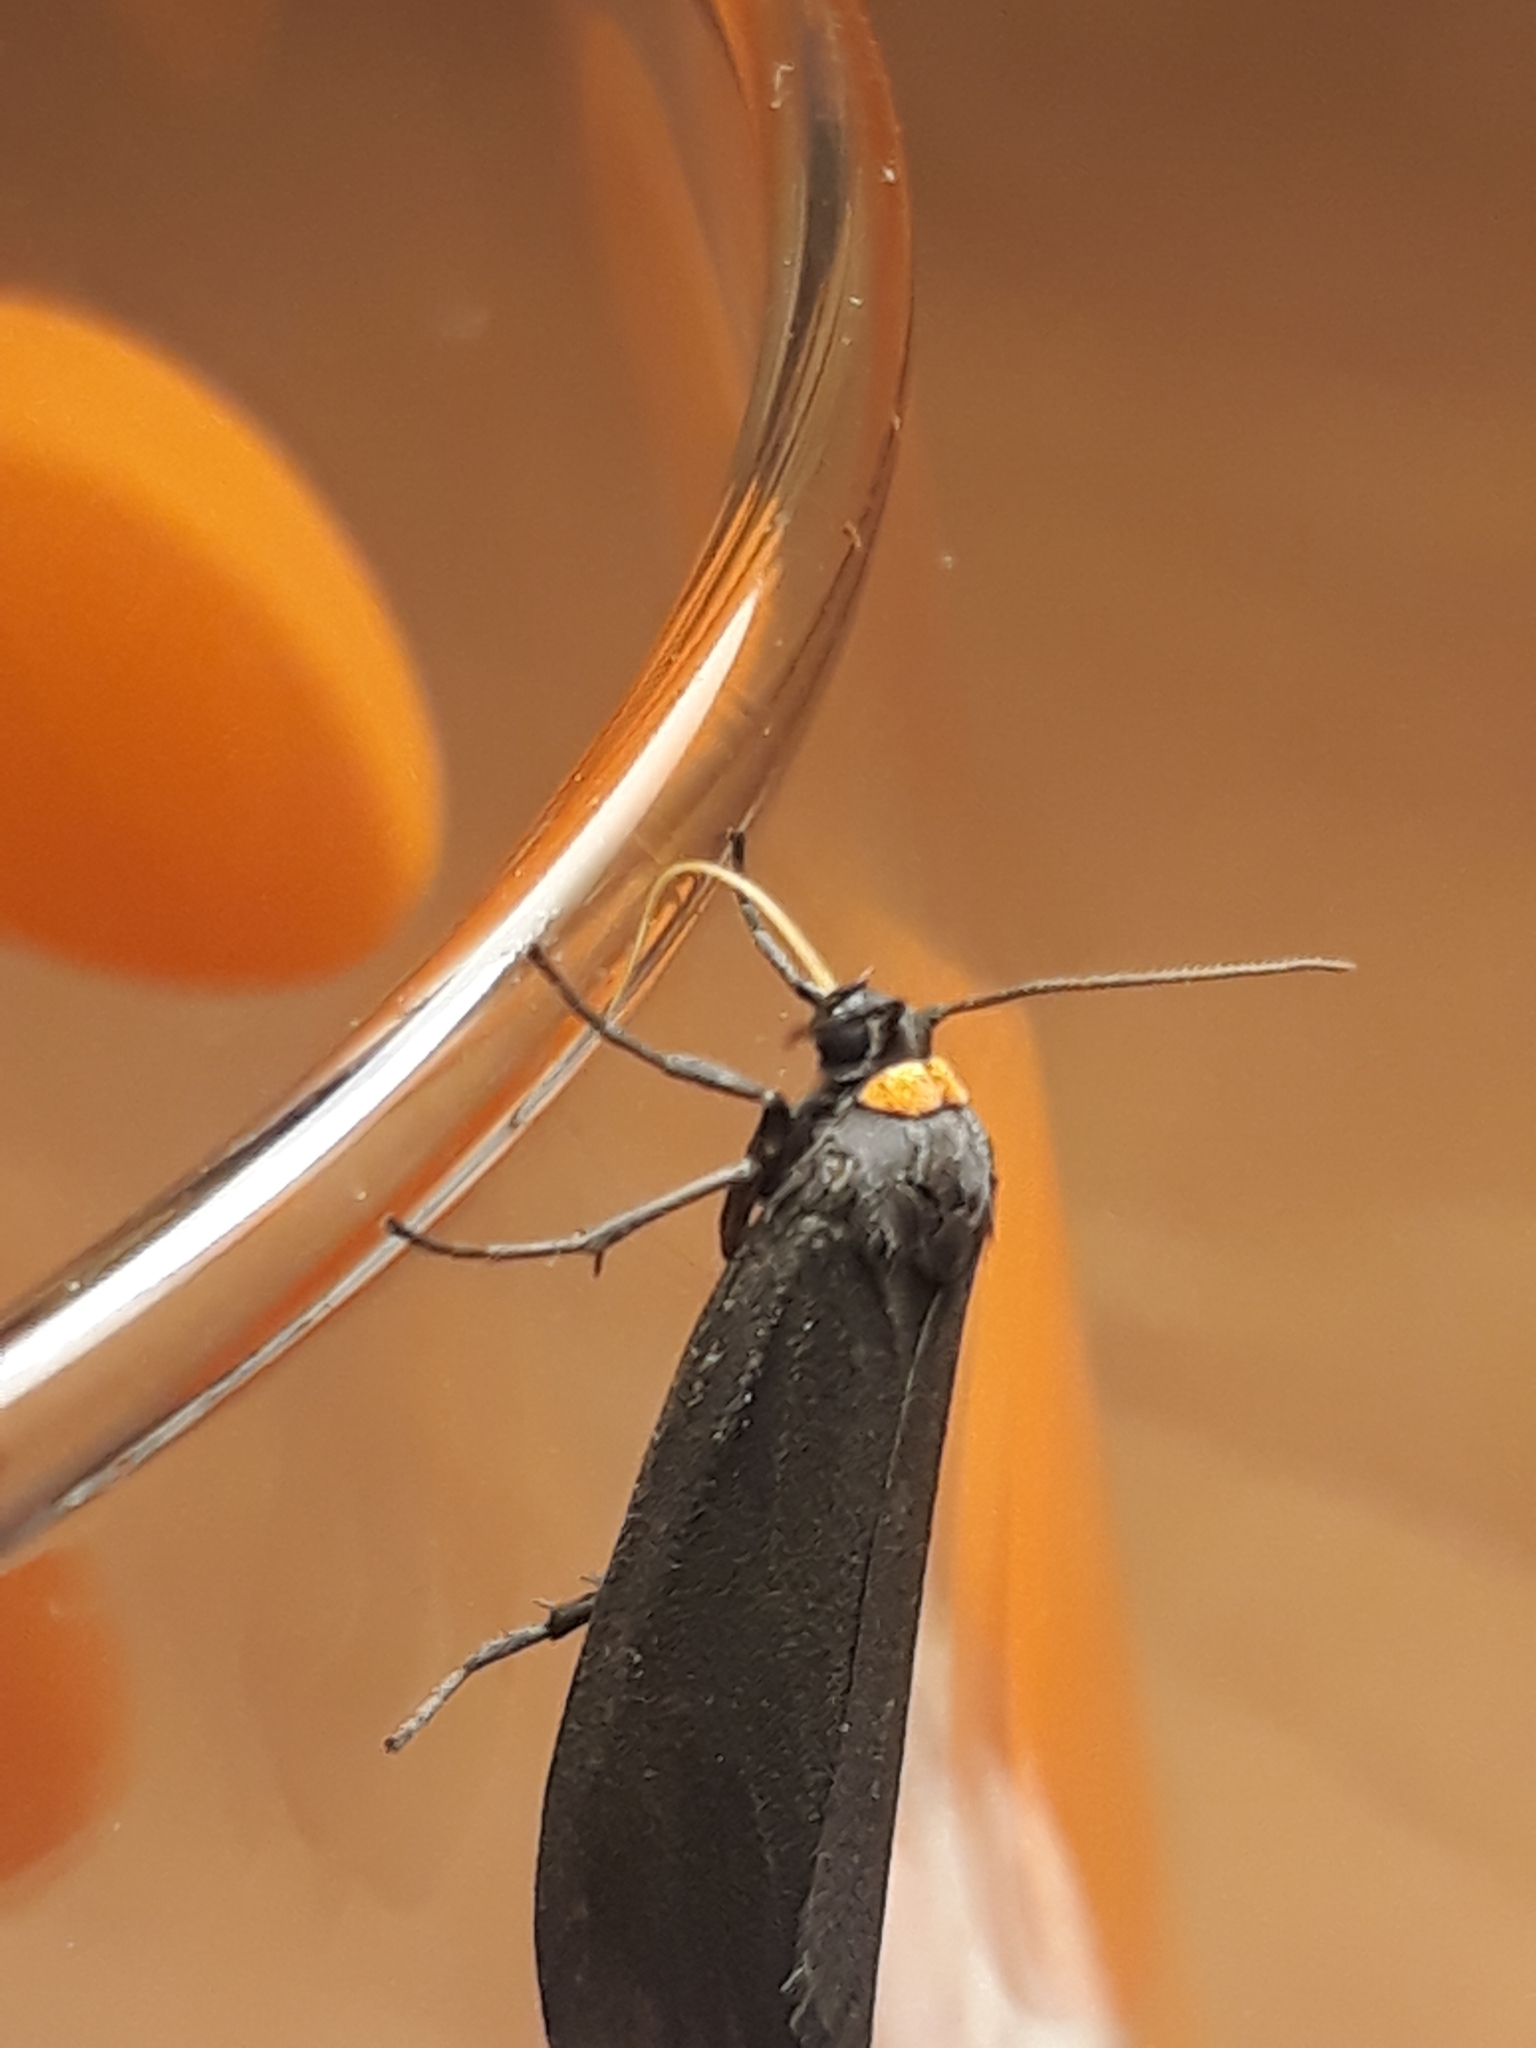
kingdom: Animalia
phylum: Arthropoda
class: Insecta
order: Lepidoptera
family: Erebidae
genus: Atolmis
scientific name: Atolmis rubricollis
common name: Red-necked footman
